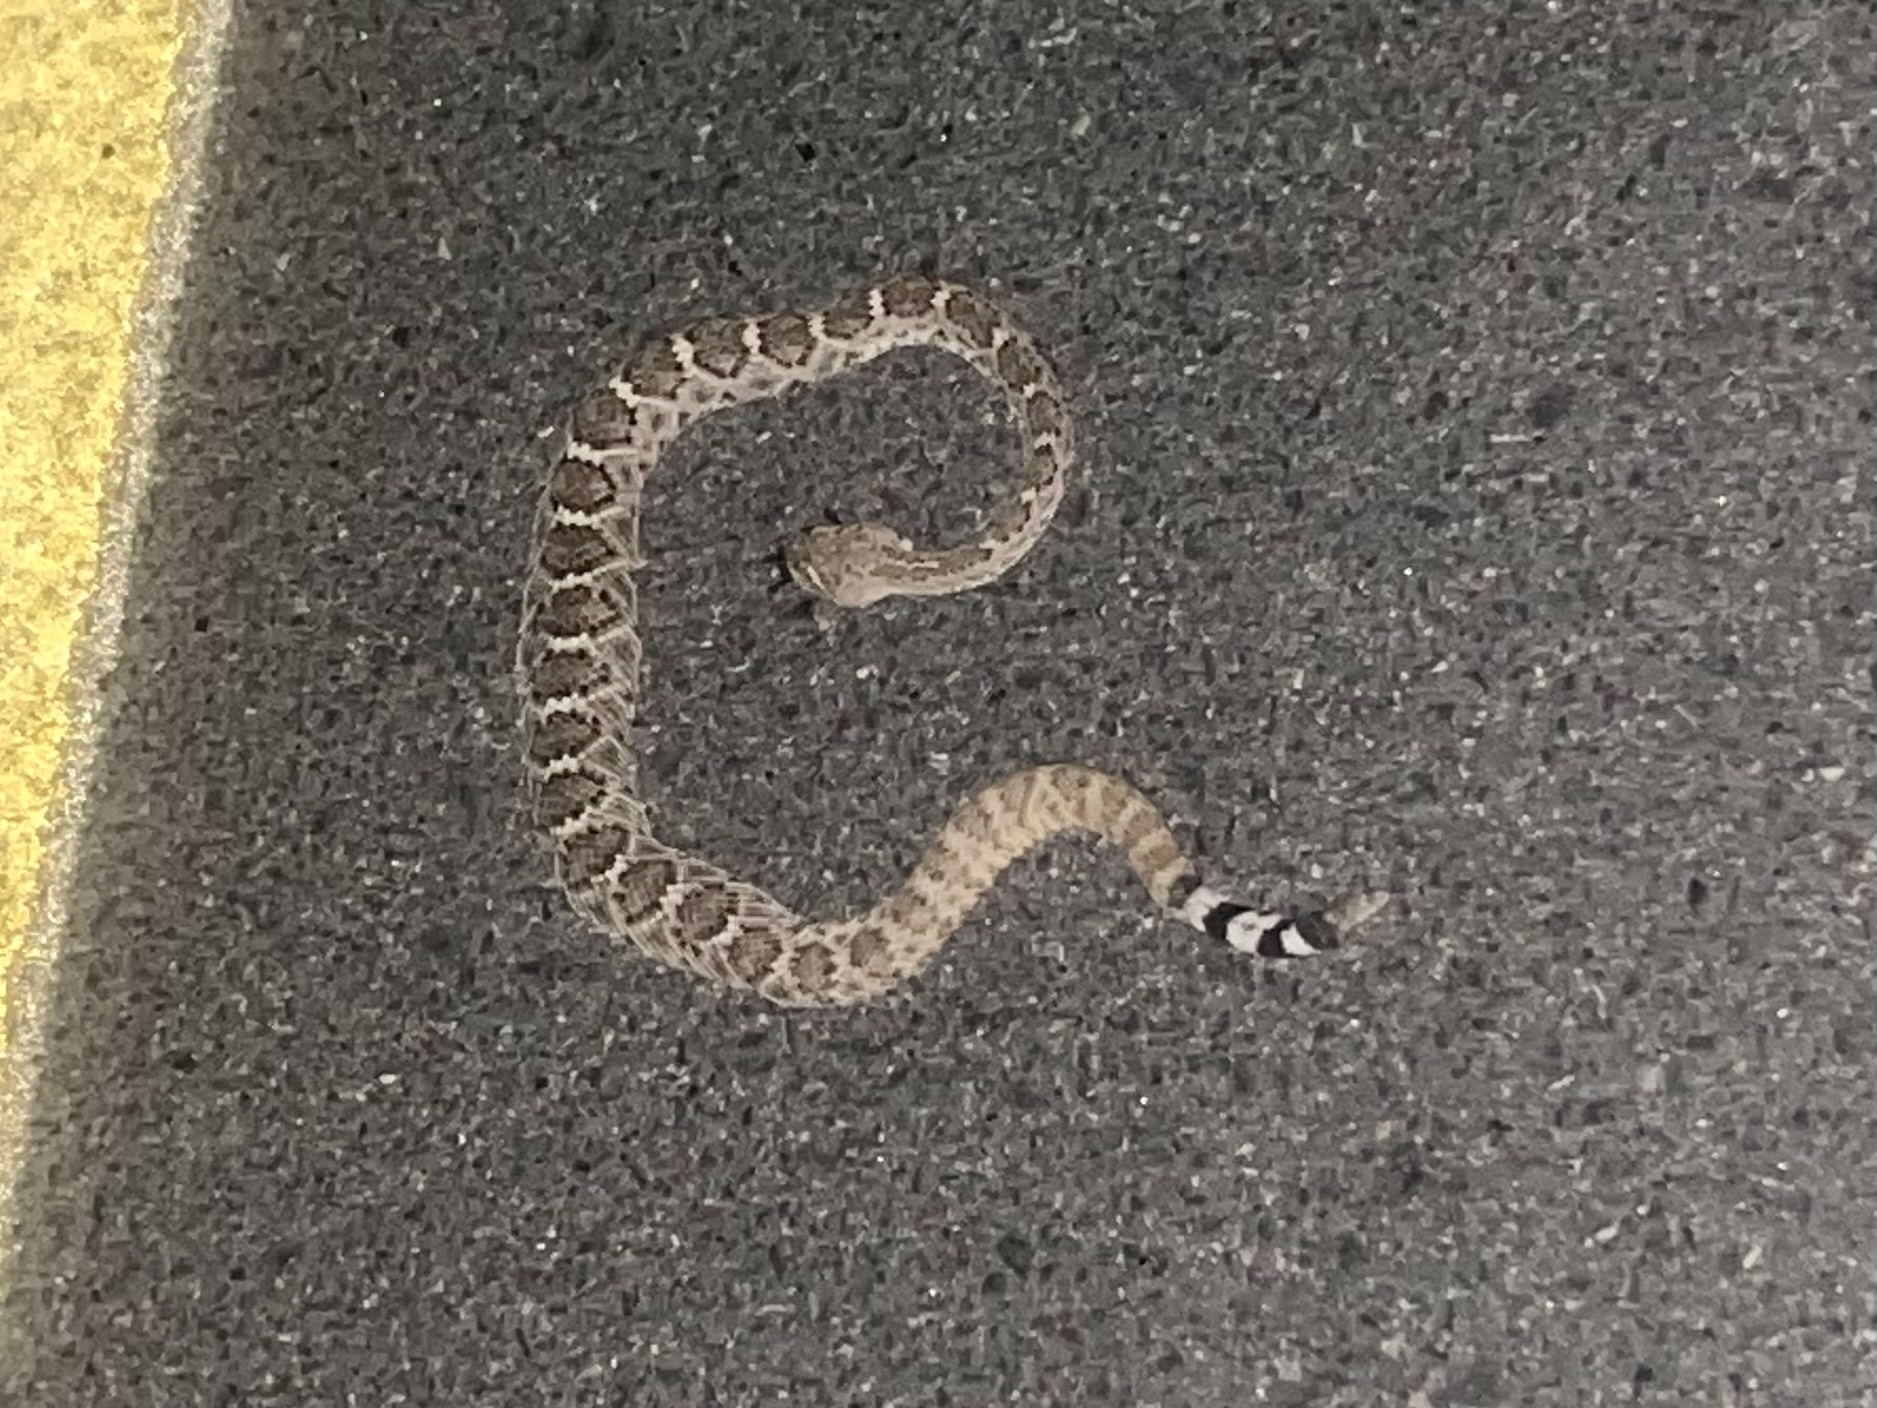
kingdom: Animalia
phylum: Chordata
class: Squamata
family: Viperidae
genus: Crotalus
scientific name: Crotalus atrox
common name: Western diamond-backed rattlesnake
